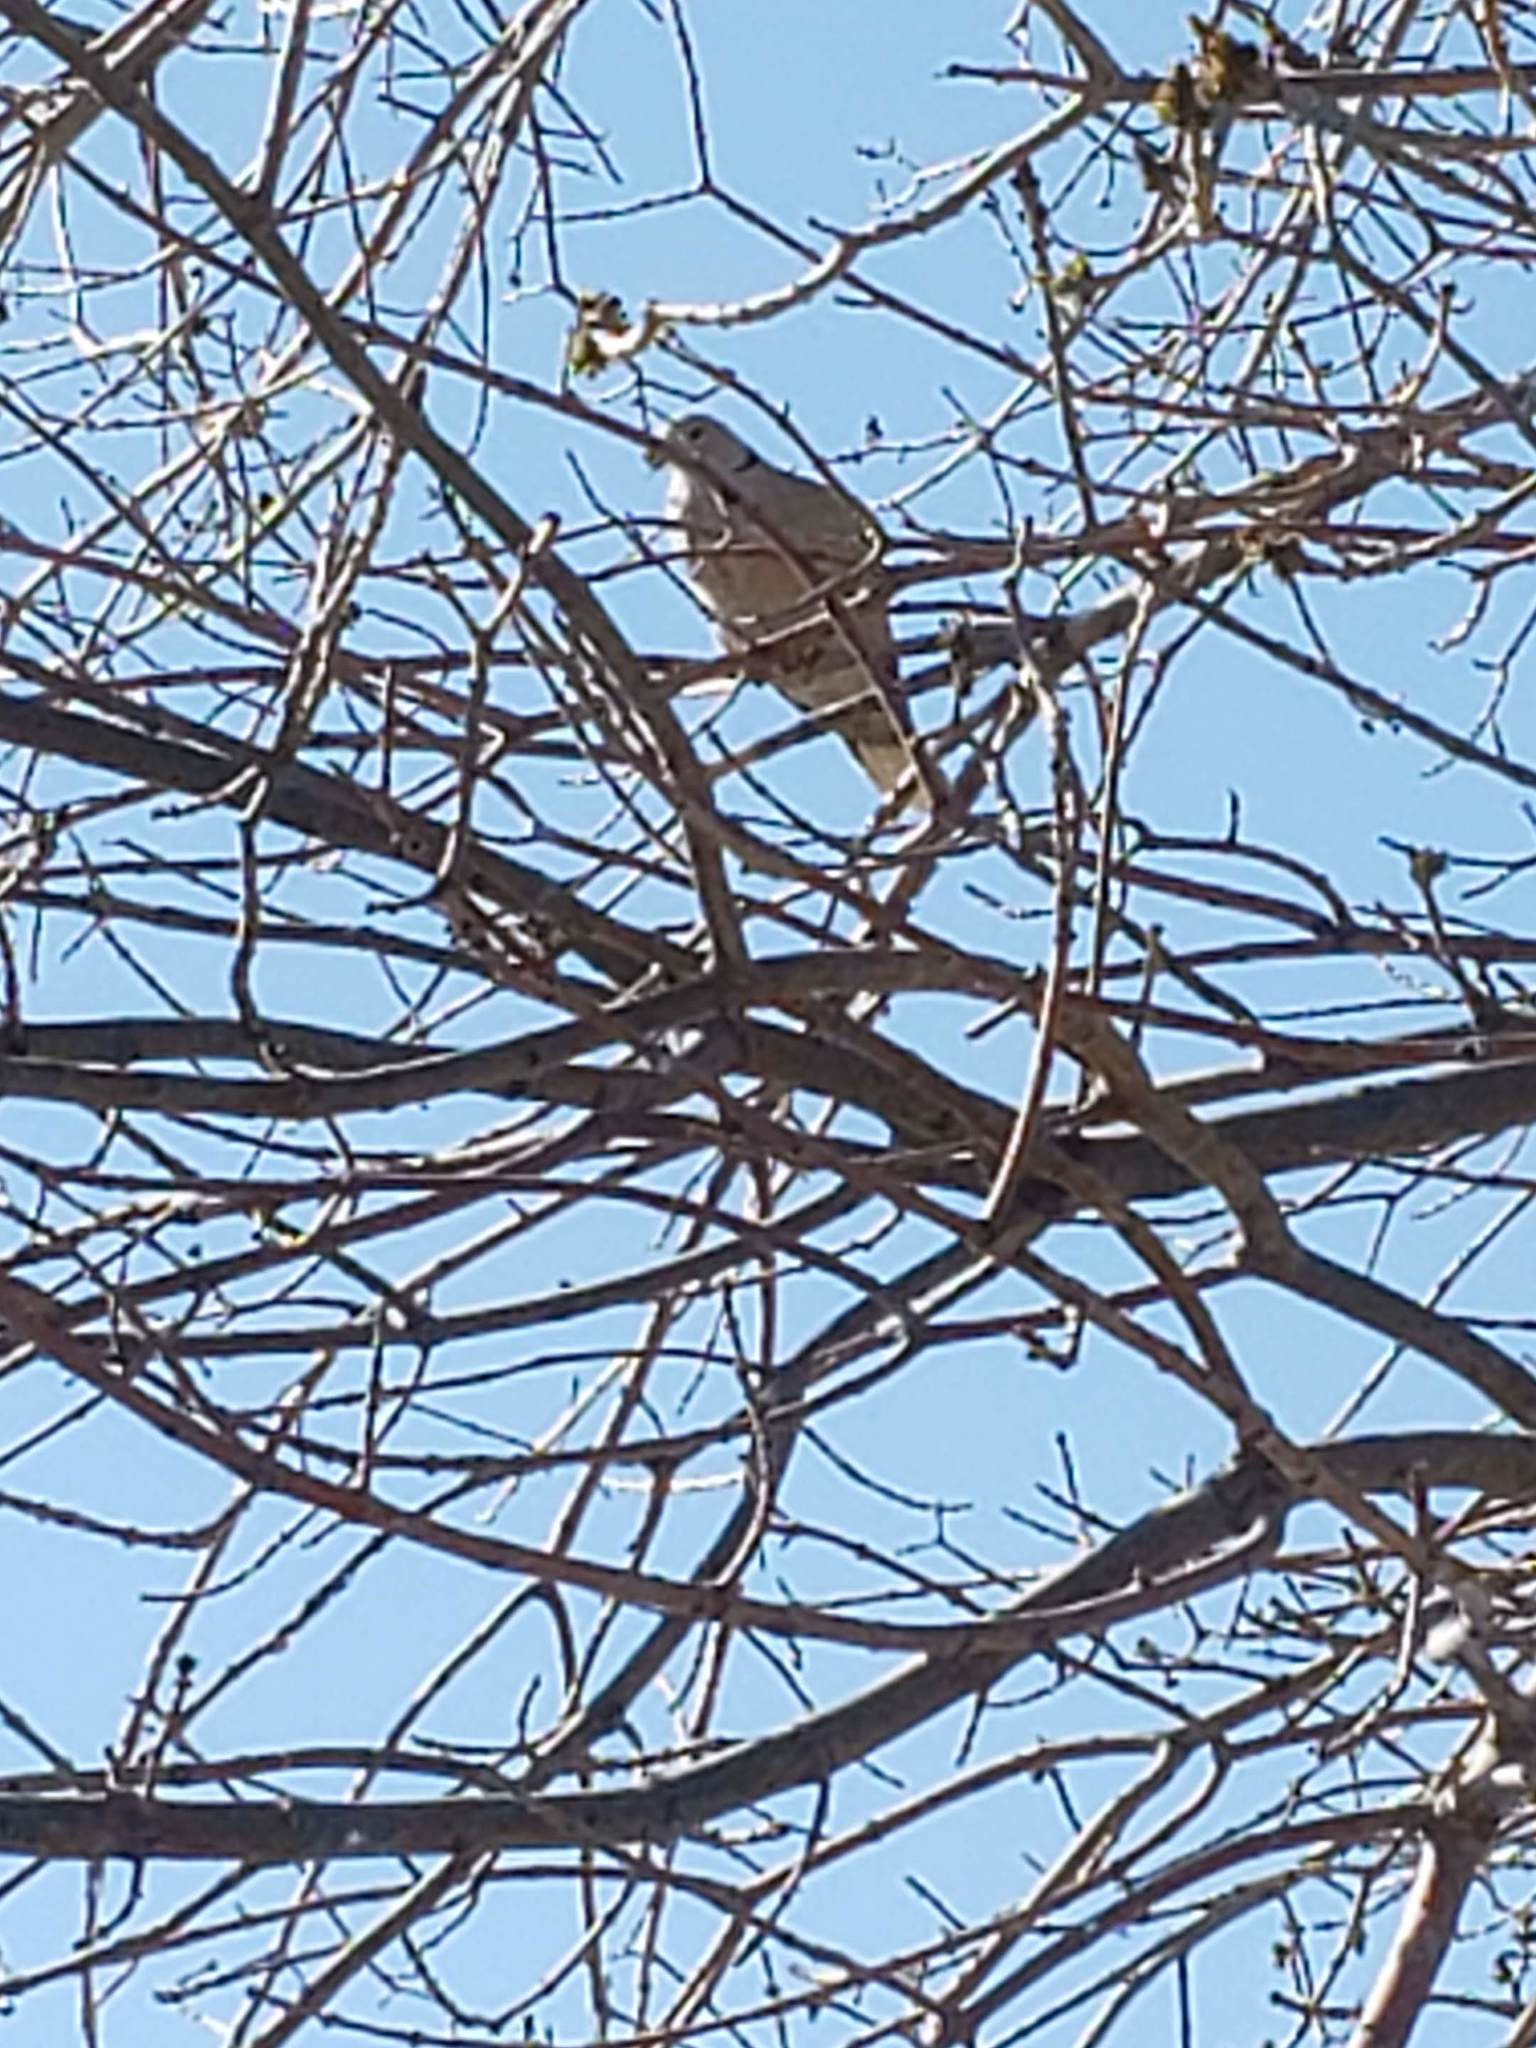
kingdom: Animalia
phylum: Chordata
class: Aves
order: Columbiformes
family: Columbidae
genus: Streptopelia
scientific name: Streptopelia decaocto
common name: Eurasian collared dove
